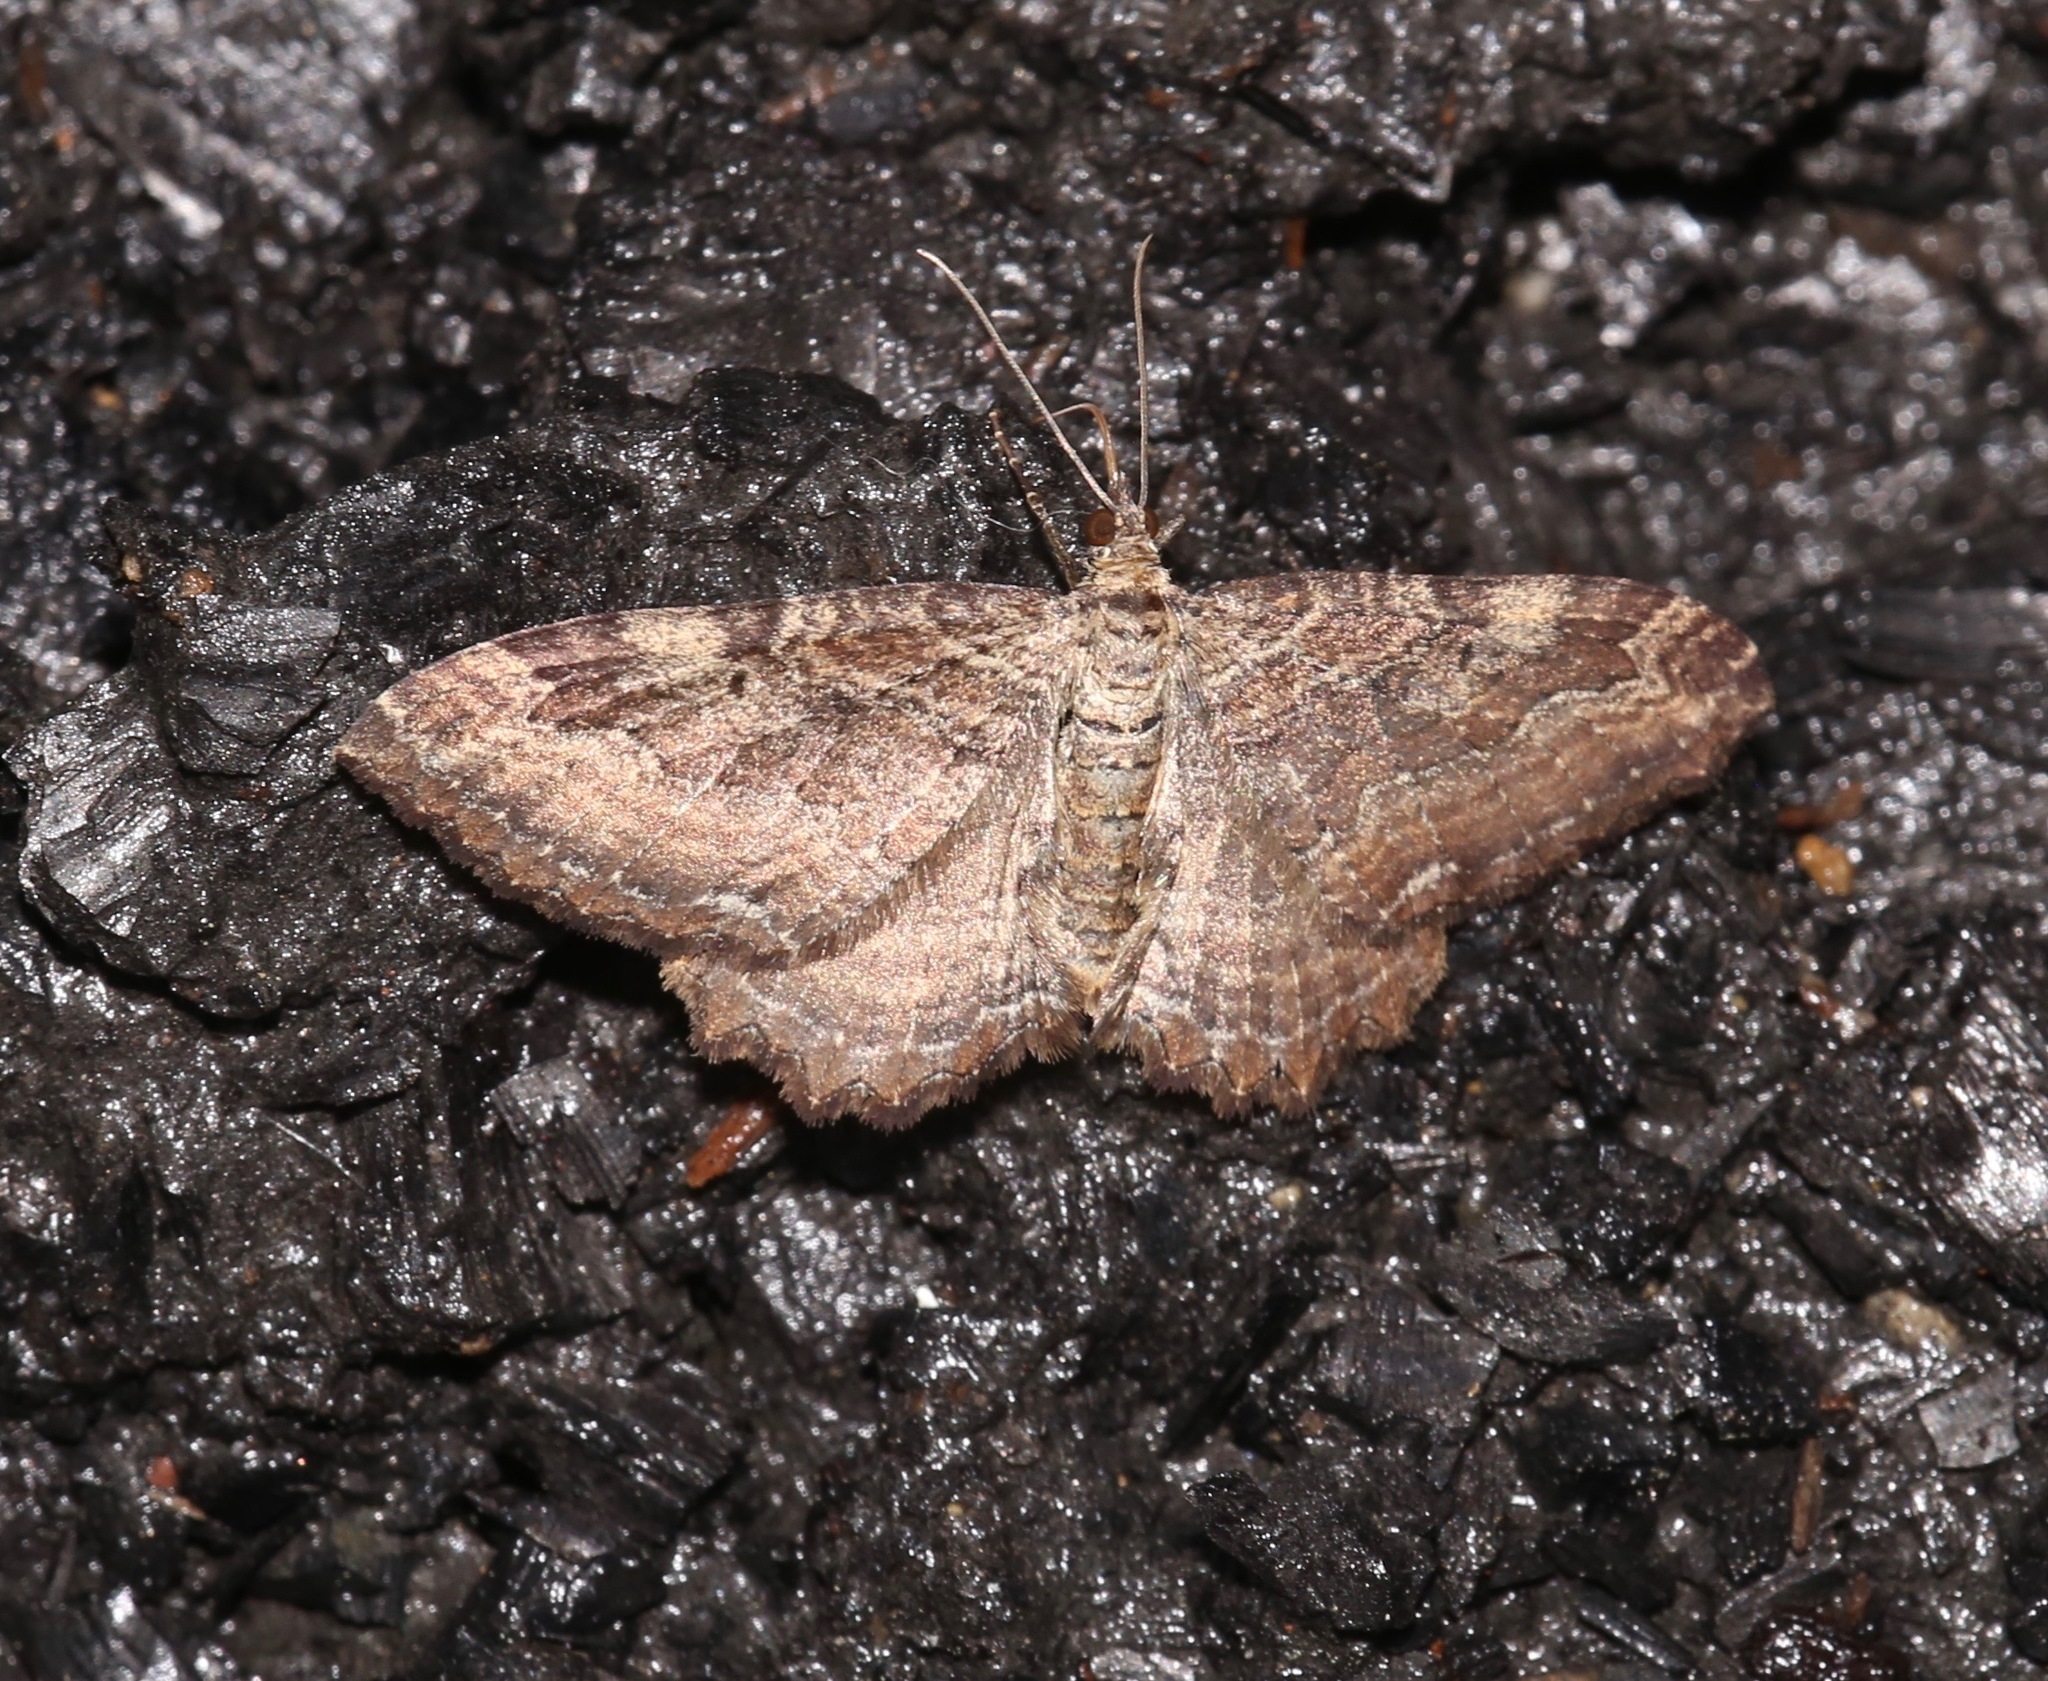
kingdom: Animalia
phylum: Arthropoda
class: Insecta
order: Lepidoptera
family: Geometridae
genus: Rheumaptera
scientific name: Rheumaptera
